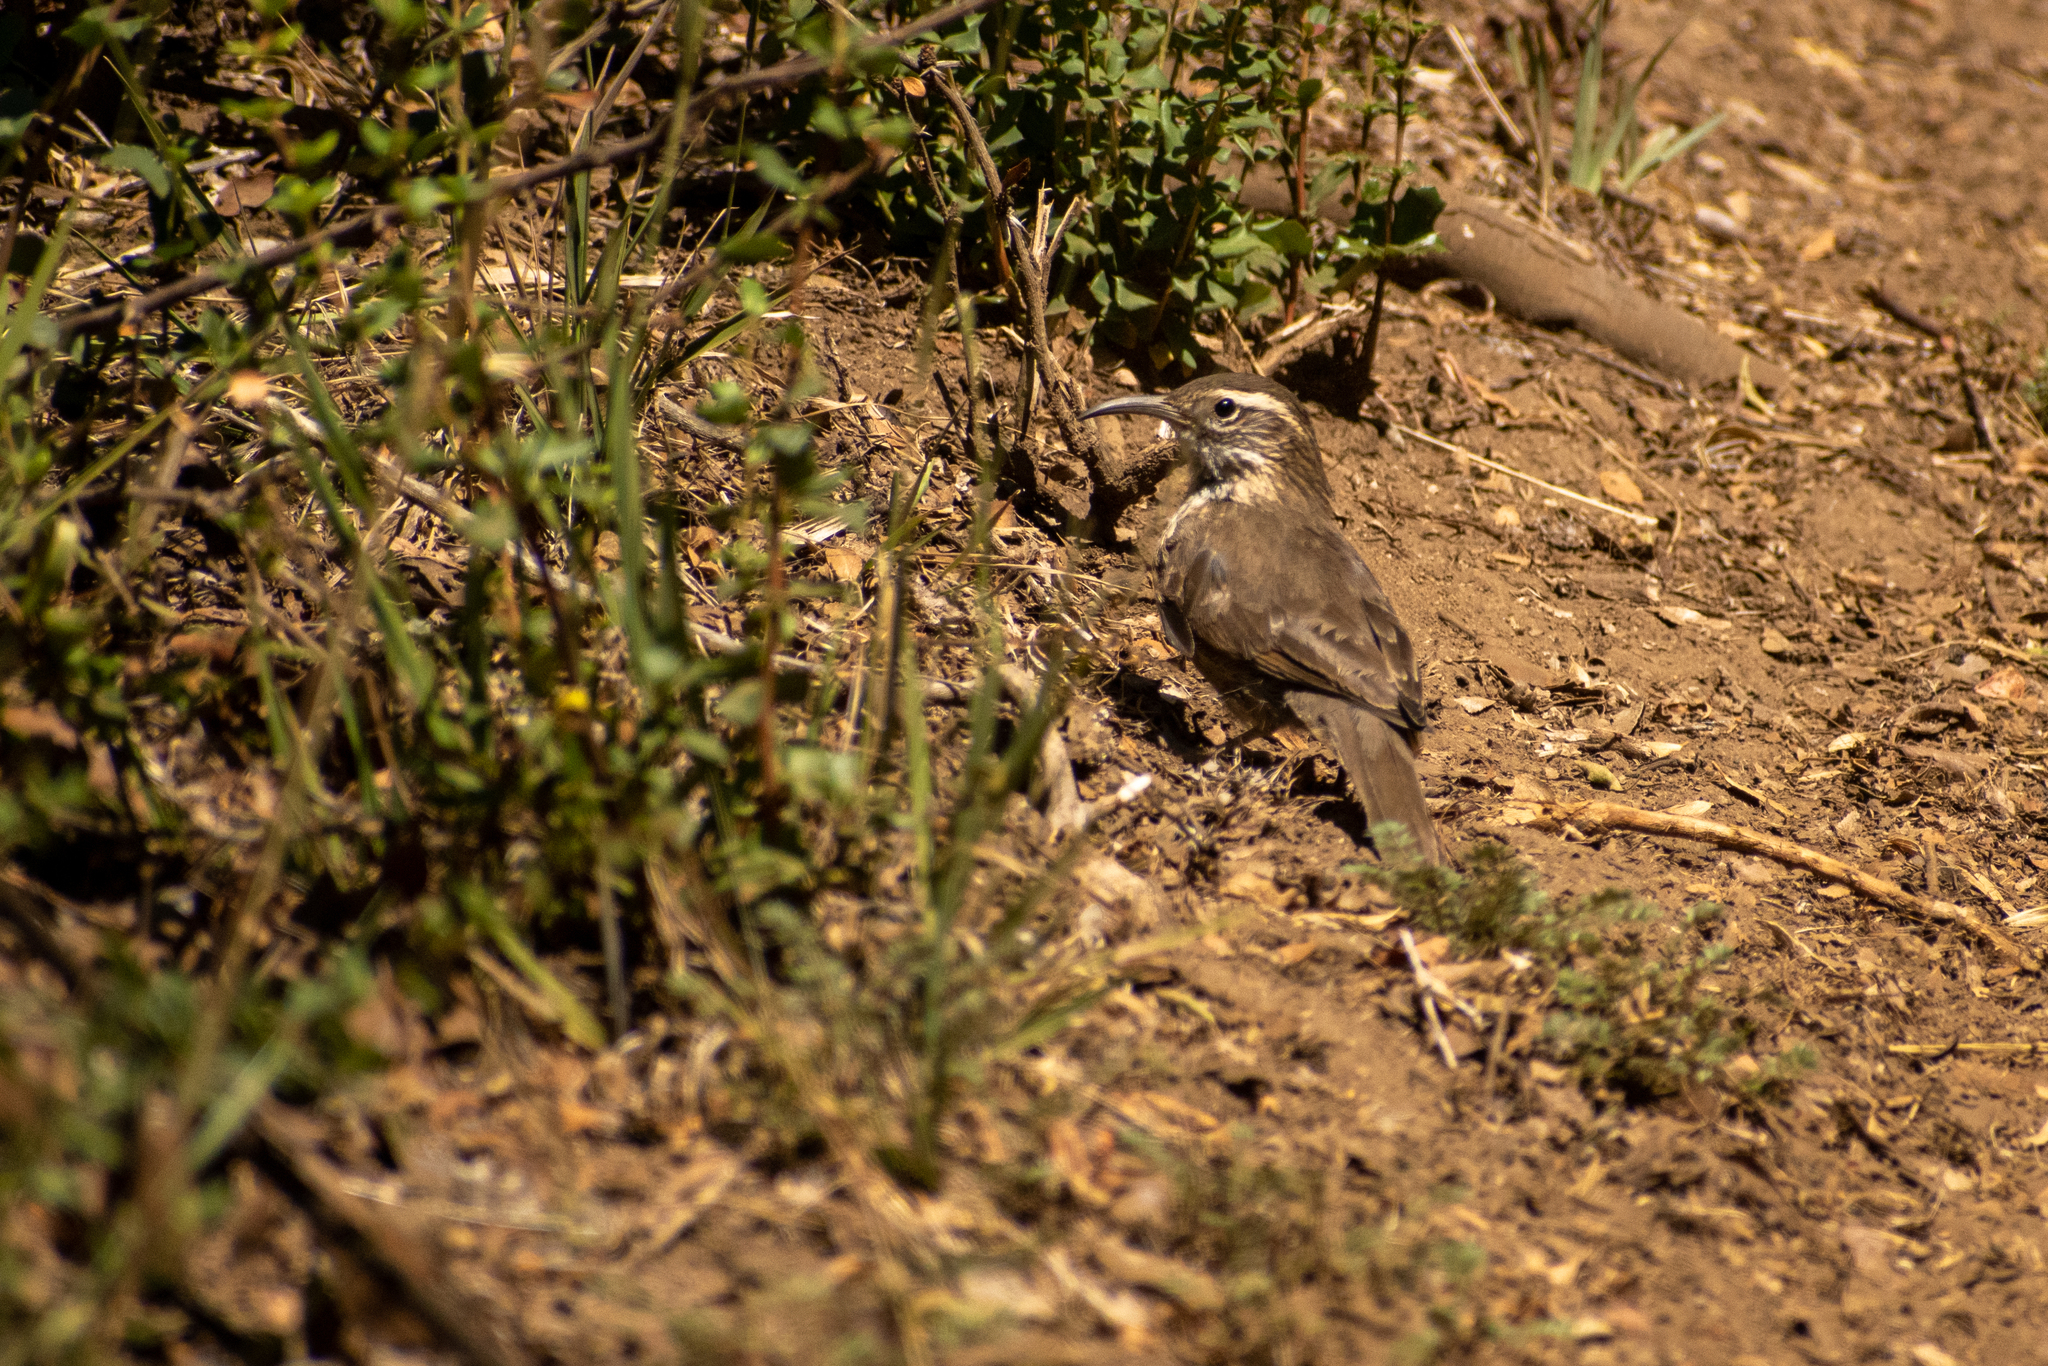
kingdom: Animalia
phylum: Chordata
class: Aves
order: Passeriformes
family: Furnariidae
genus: Upucerthia
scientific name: Upucerthia saturatior
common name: Patagonian forest earthcreeper
